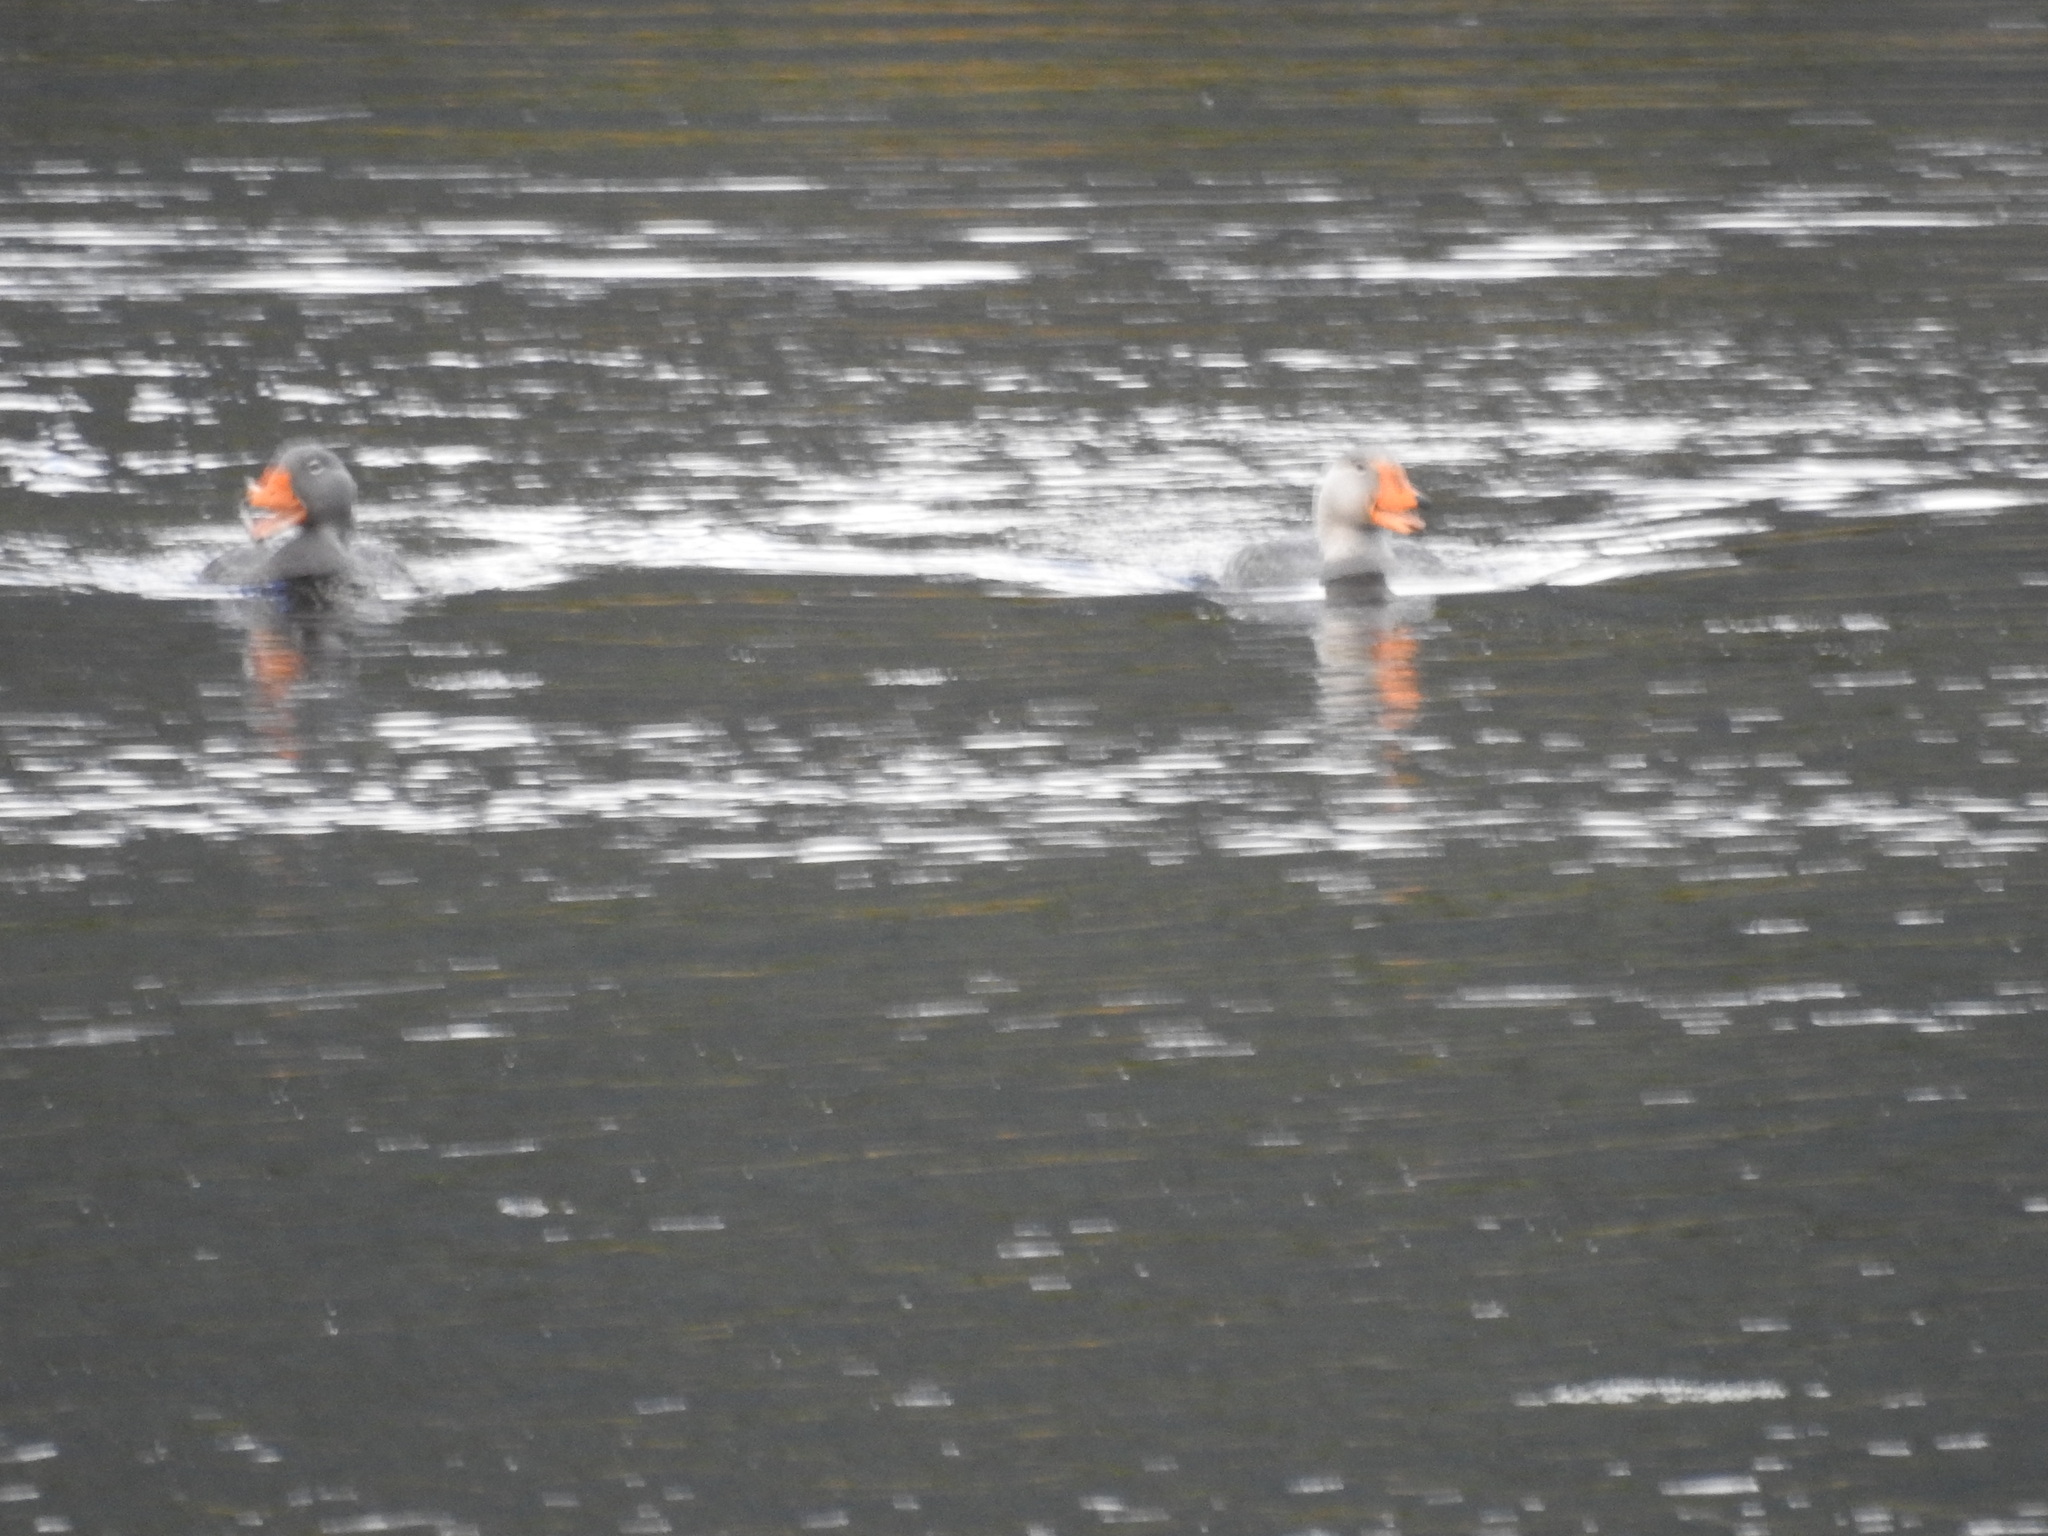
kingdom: Animalia
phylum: Chordata
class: Aves
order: Anseriformes
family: Anatidae
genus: Tachyeres
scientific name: Tachyeres pteneres
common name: Fuegian steamer duck
